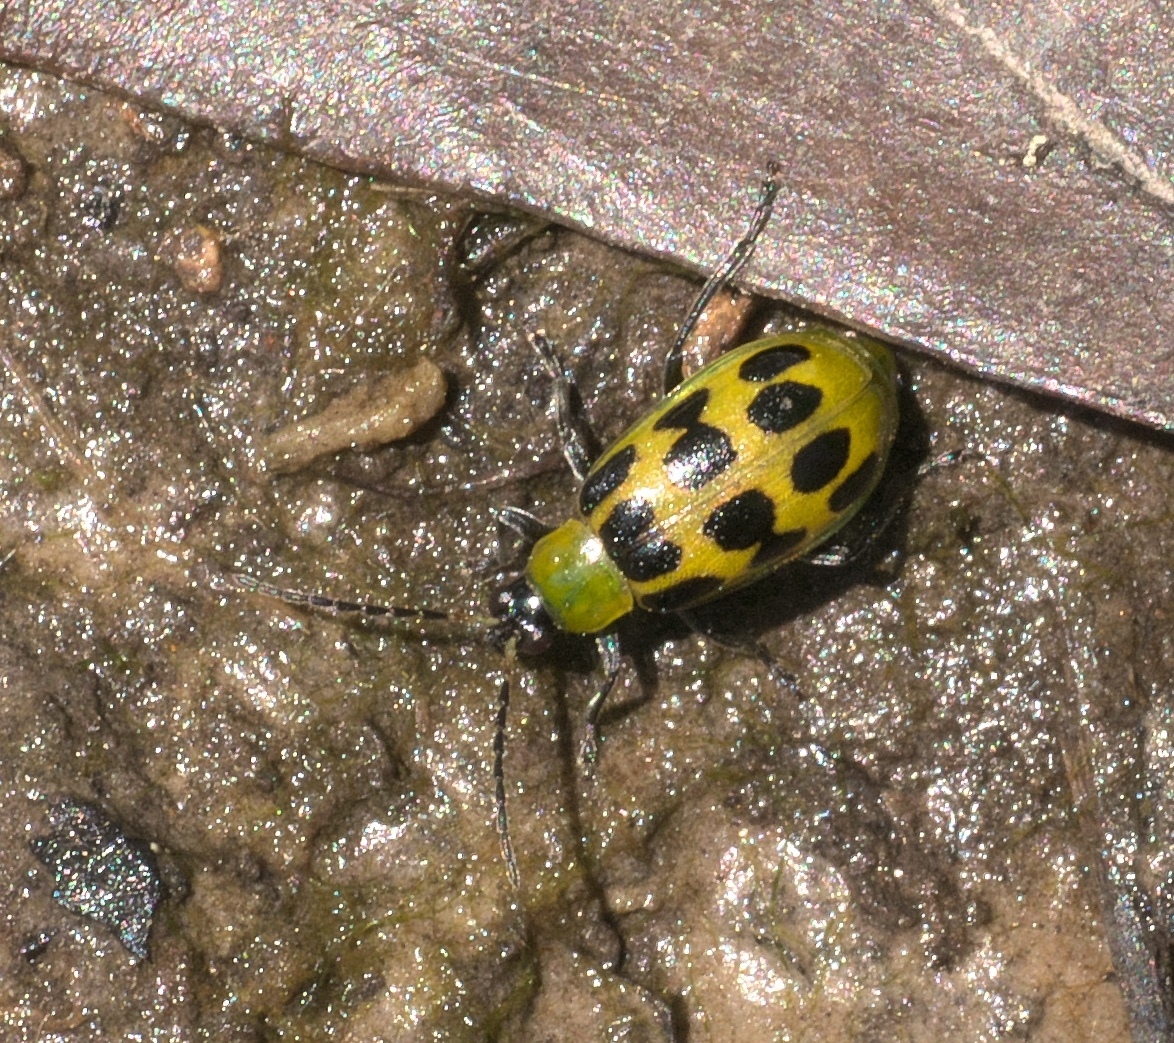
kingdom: Animalia
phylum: Arthropoda
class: Insecta
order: Coleoptera
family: Chrysomelidae
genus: Diabrotica
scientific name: Diabrotica undecimpunctata
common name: Spotted cucumber beetle
